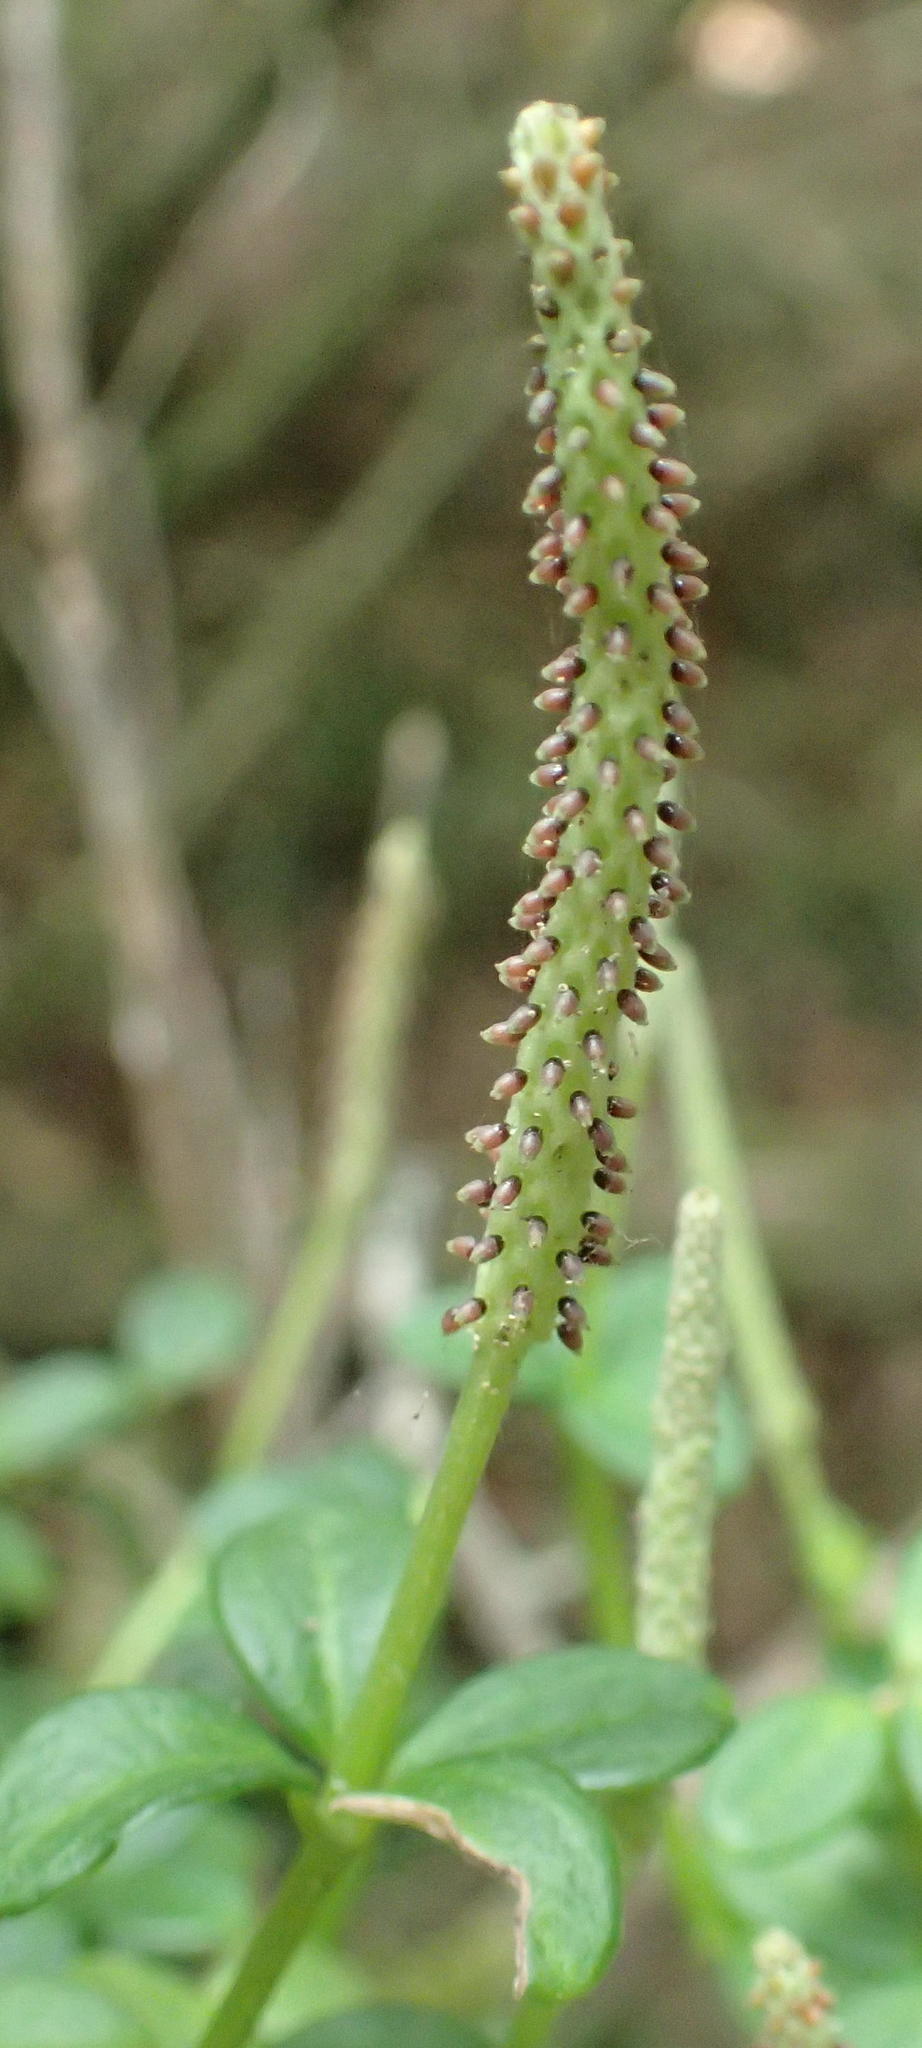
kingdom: Plantae
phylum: Tracheophyta
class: Magnoliopsida
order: Piperales
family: Piperaceae
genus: Peperomia
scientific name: Peperomia tetraphylla
